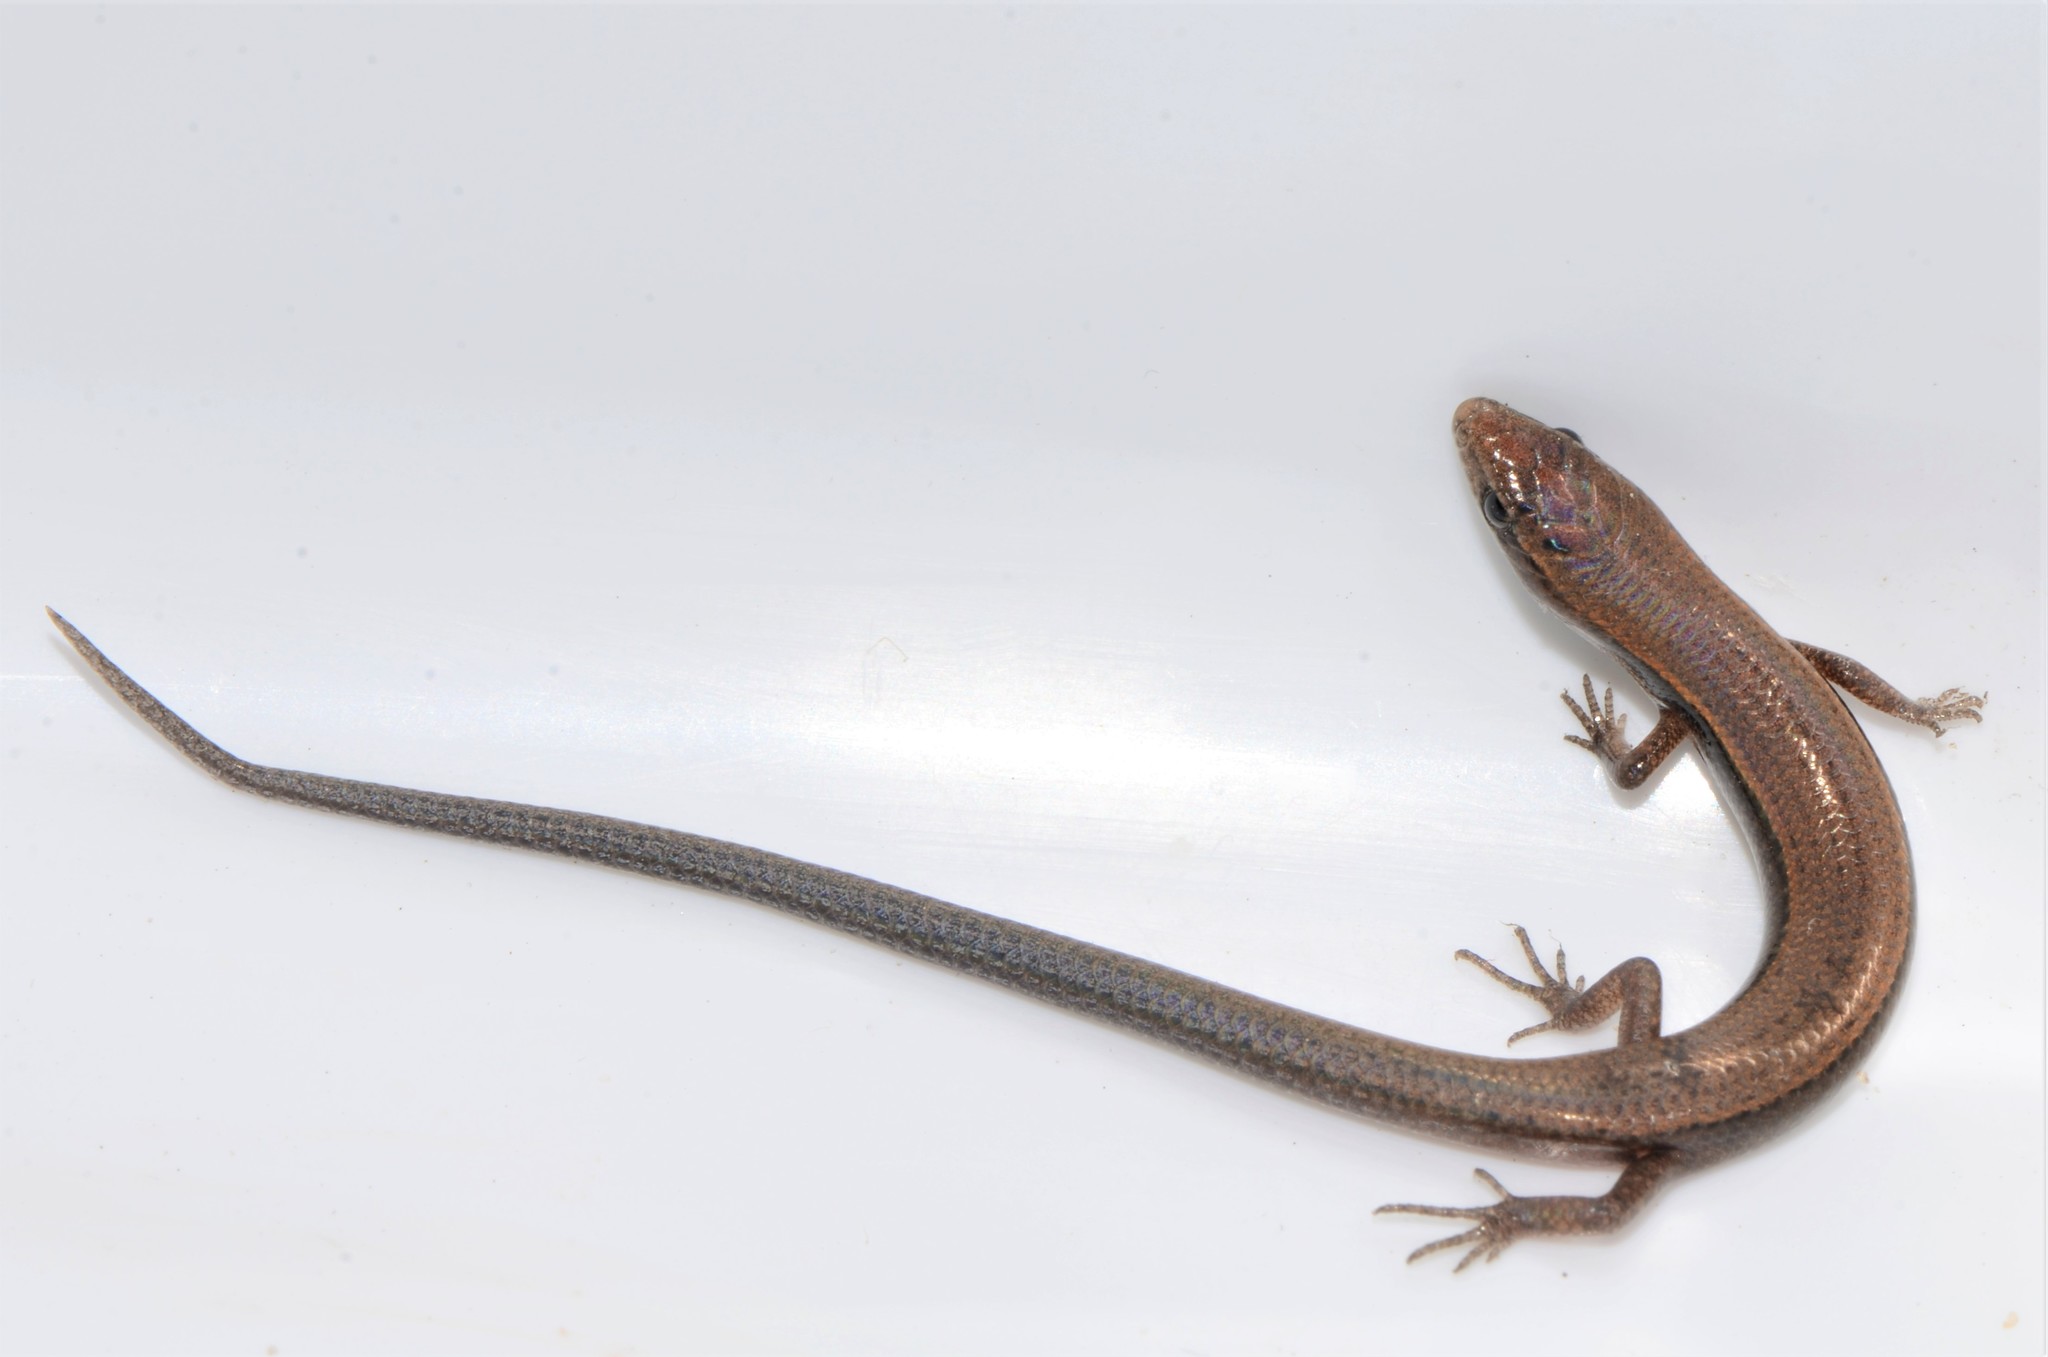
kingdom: Animalia
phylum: Chordata
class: Squamata
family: Scincidae
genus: Panaspis
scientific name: Panaspis wahlbergii
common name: Angolan snake-eyed skink
